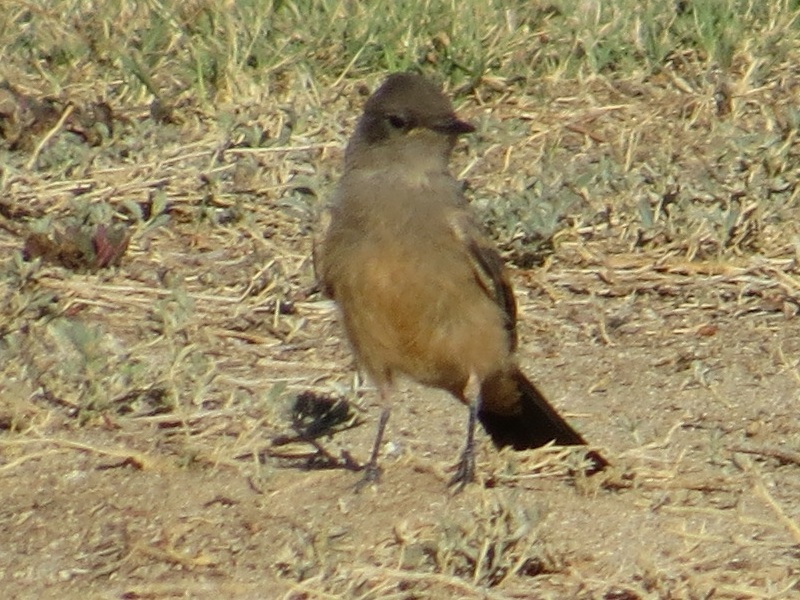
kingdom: Animalia
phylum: Chordata
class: Aves
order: Passeriformes
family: Tyrannidae
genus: Sayornis
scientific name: Sayornis saya
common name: Say's phoebe
